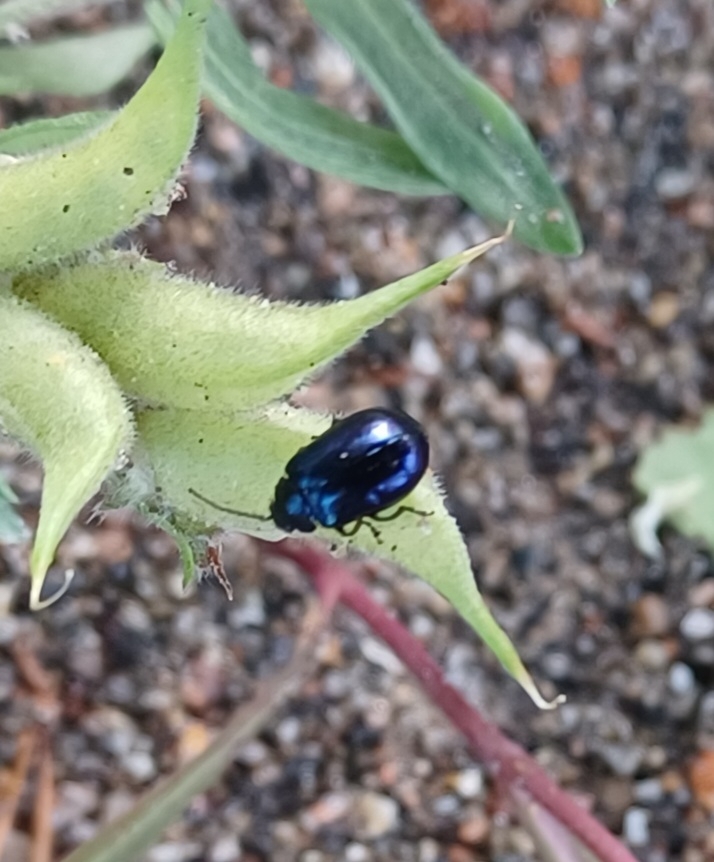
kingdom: Animalia
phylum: Arthropoda
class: Insecta
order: Coleoptera
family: Chrysomelidae
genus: Agelastica
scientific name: Agelastica alni
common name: Alder leaf beetle
